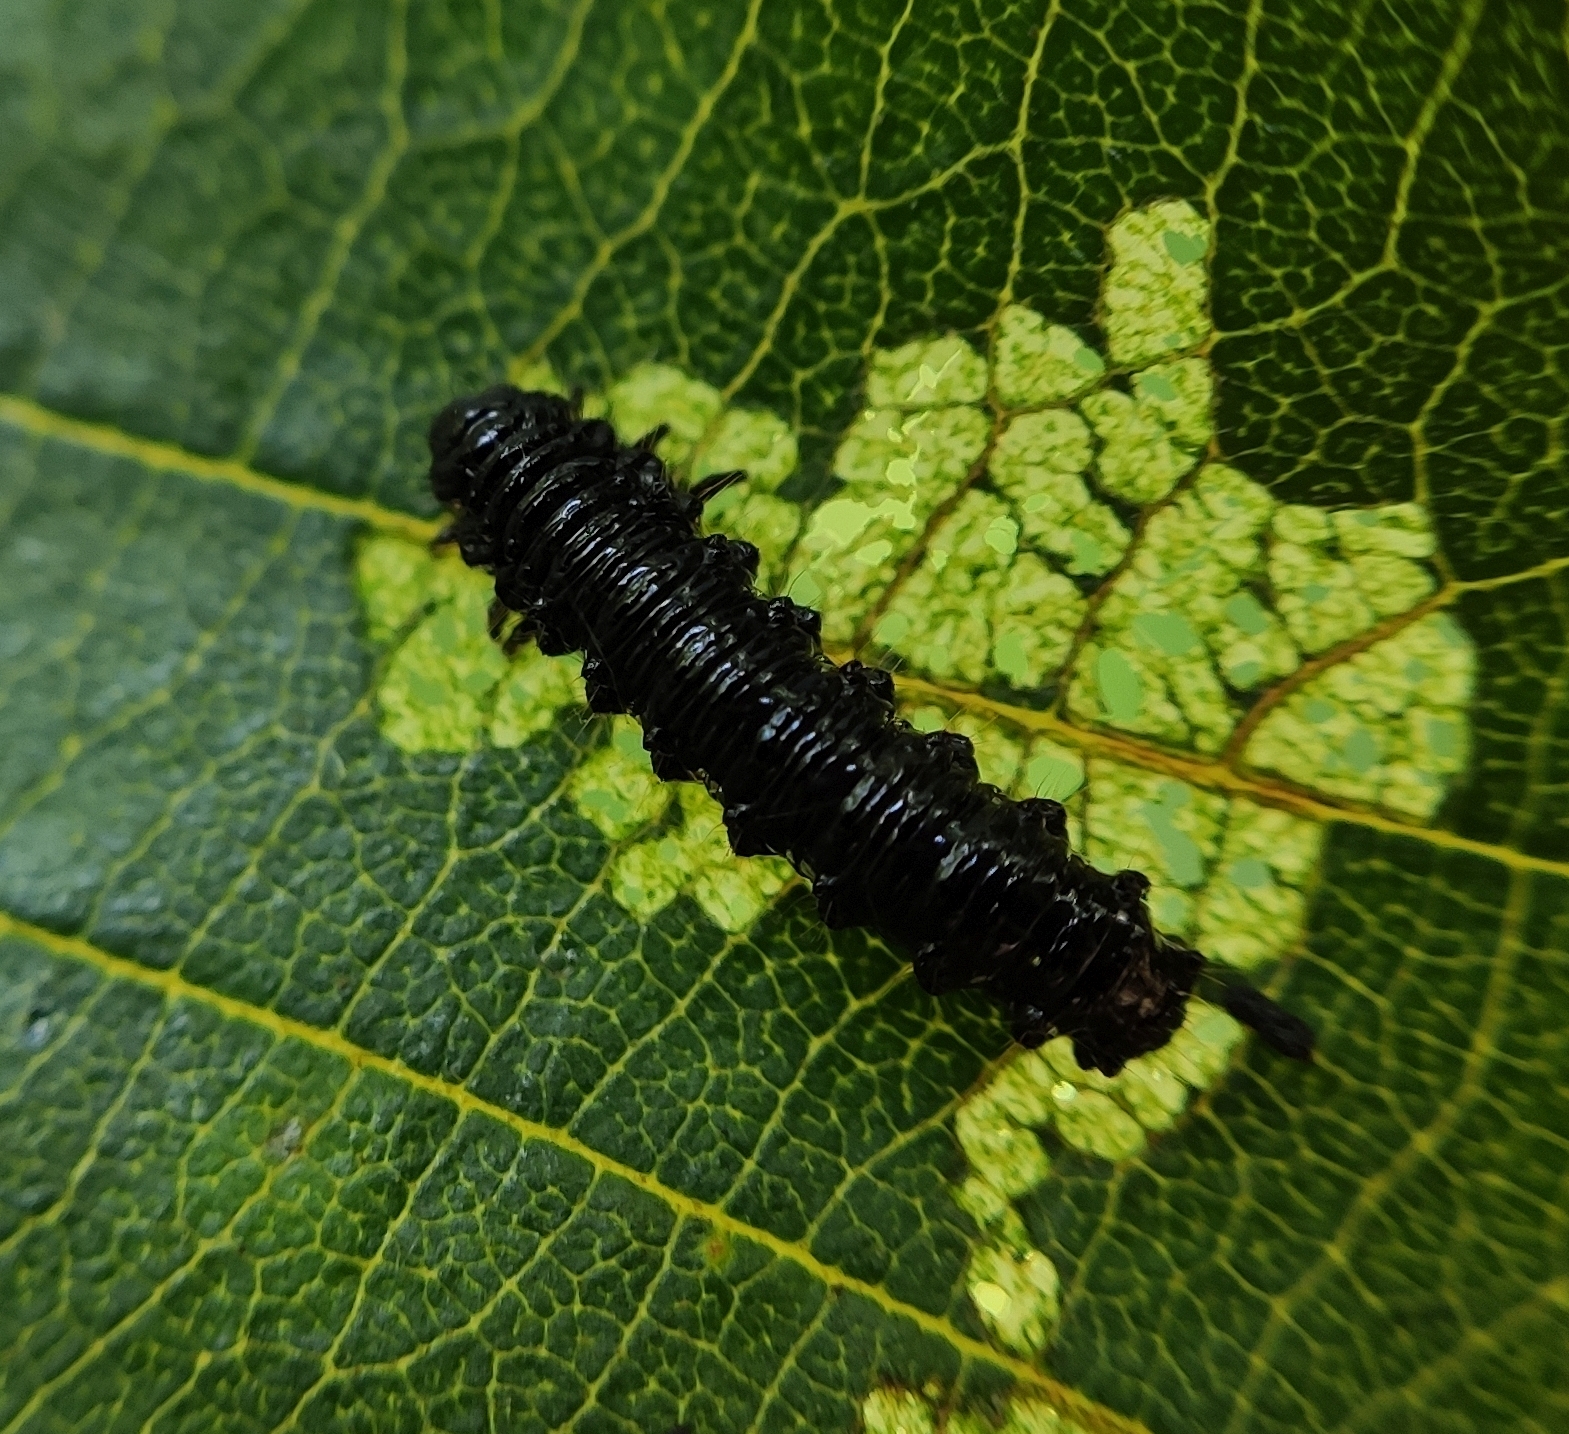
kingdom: Animalia
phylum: Arthropoda
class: Insecta
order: Coleoptera
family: Chrysomelidae
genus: Agelastica
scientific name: Agelastica alni
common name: Alder leaf beetle
